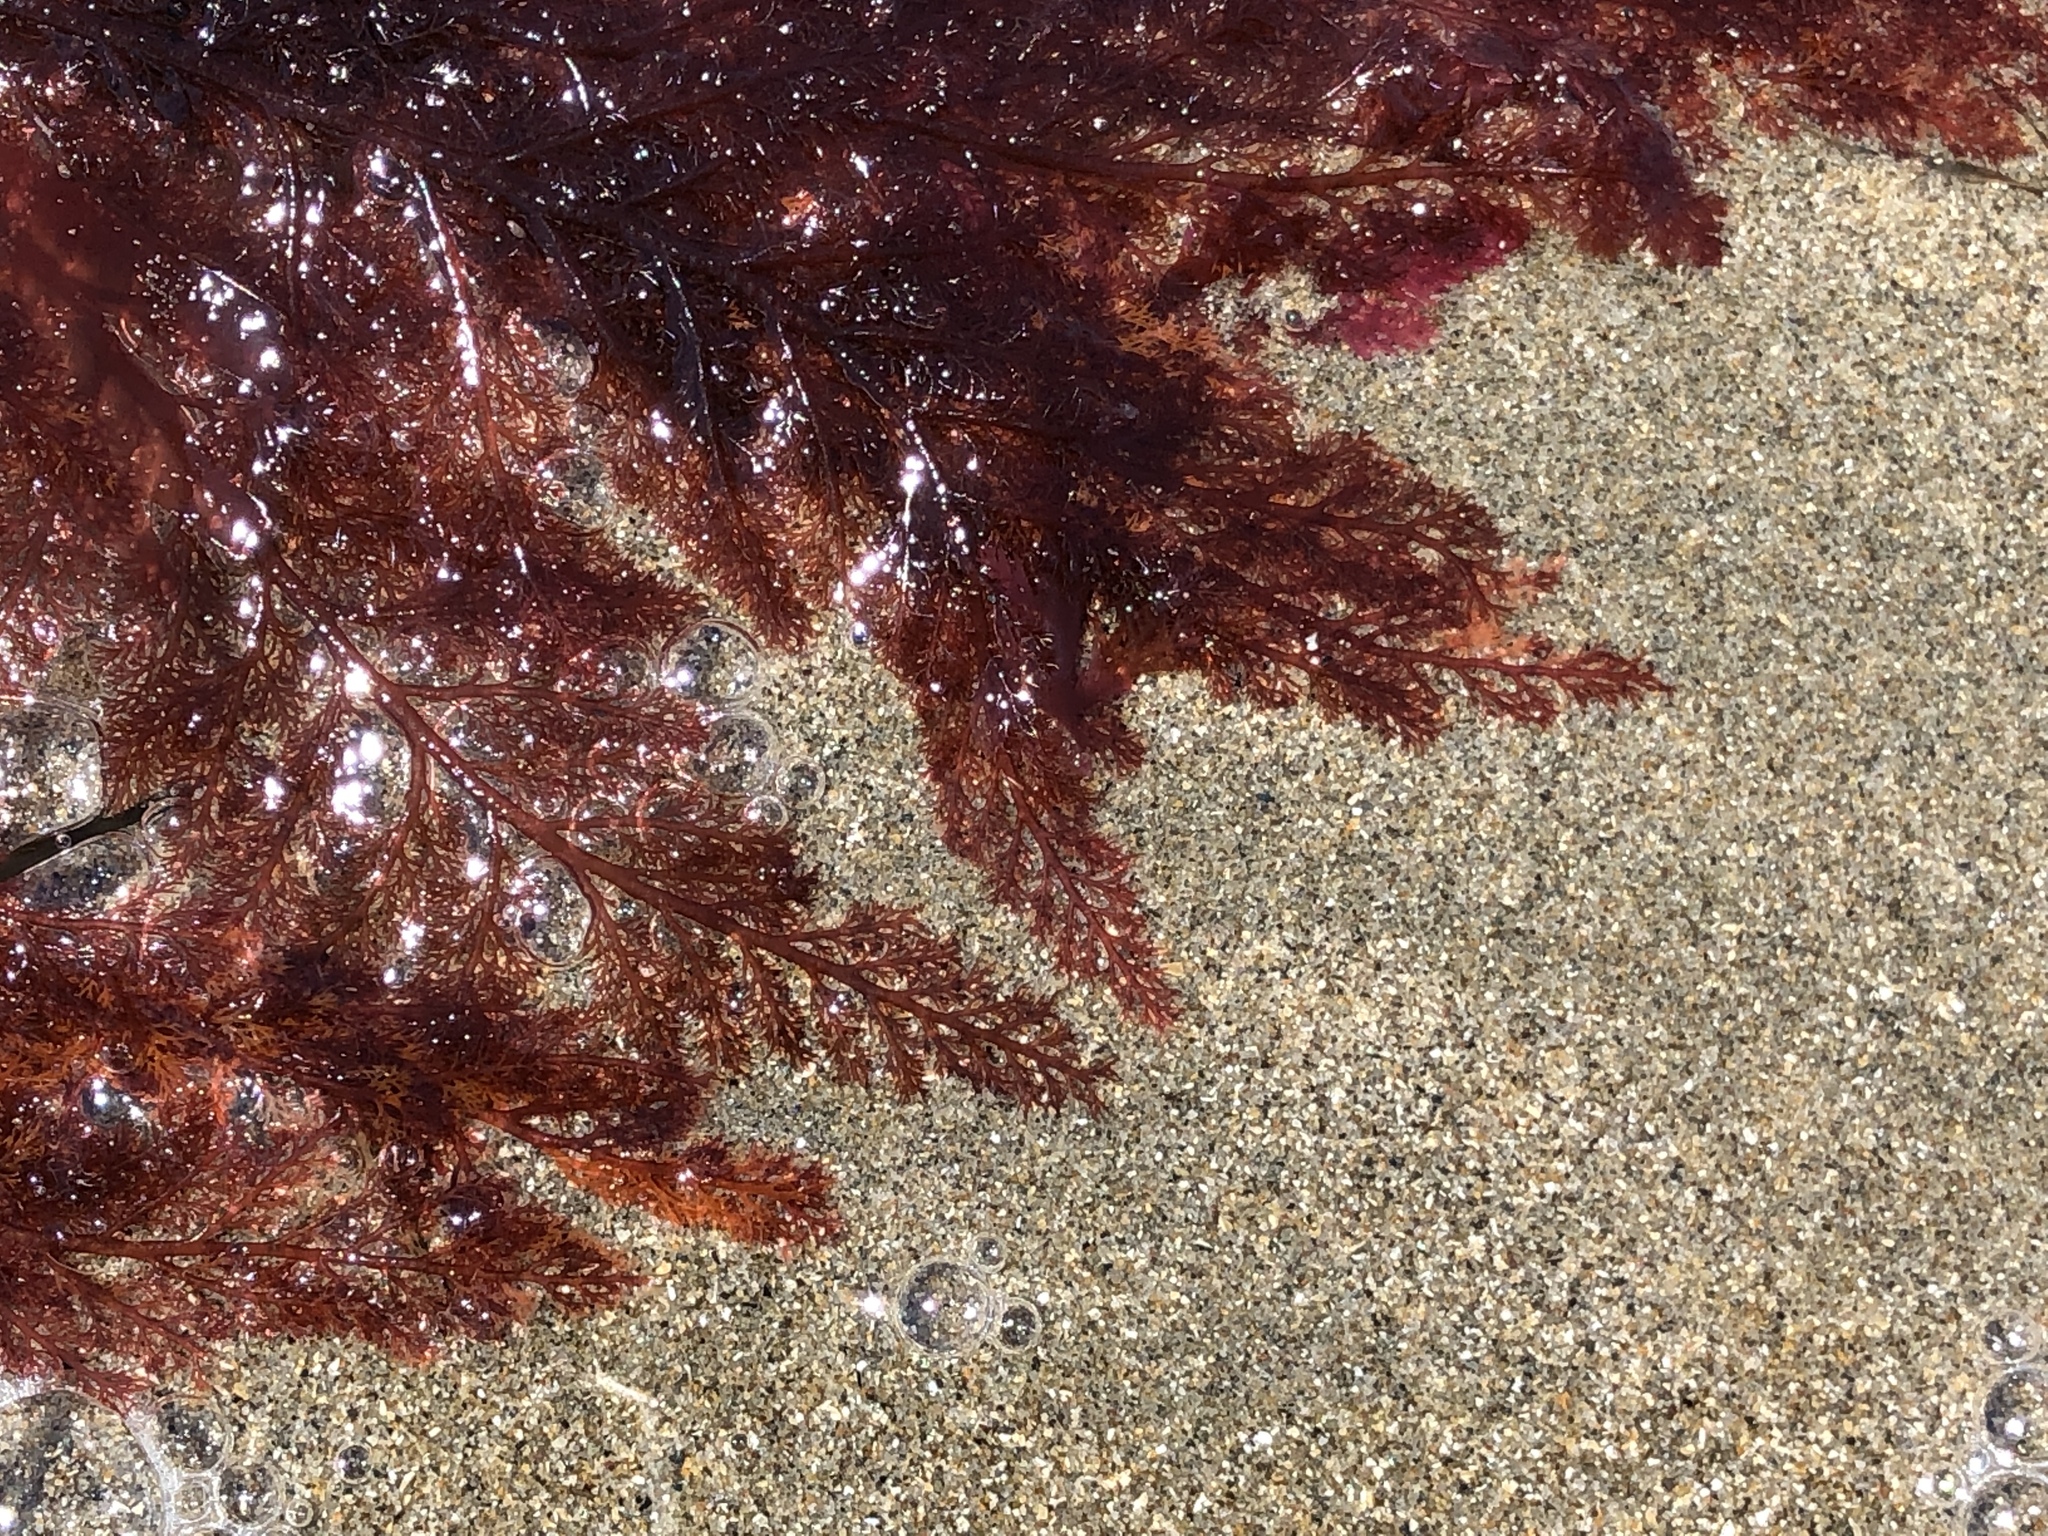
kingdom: Plantae
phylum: Rhodophyta
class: Florideophyceae
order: Ceramiales
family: Ceramiaceae
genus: Microcladia
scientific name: Microcladia coulteri
